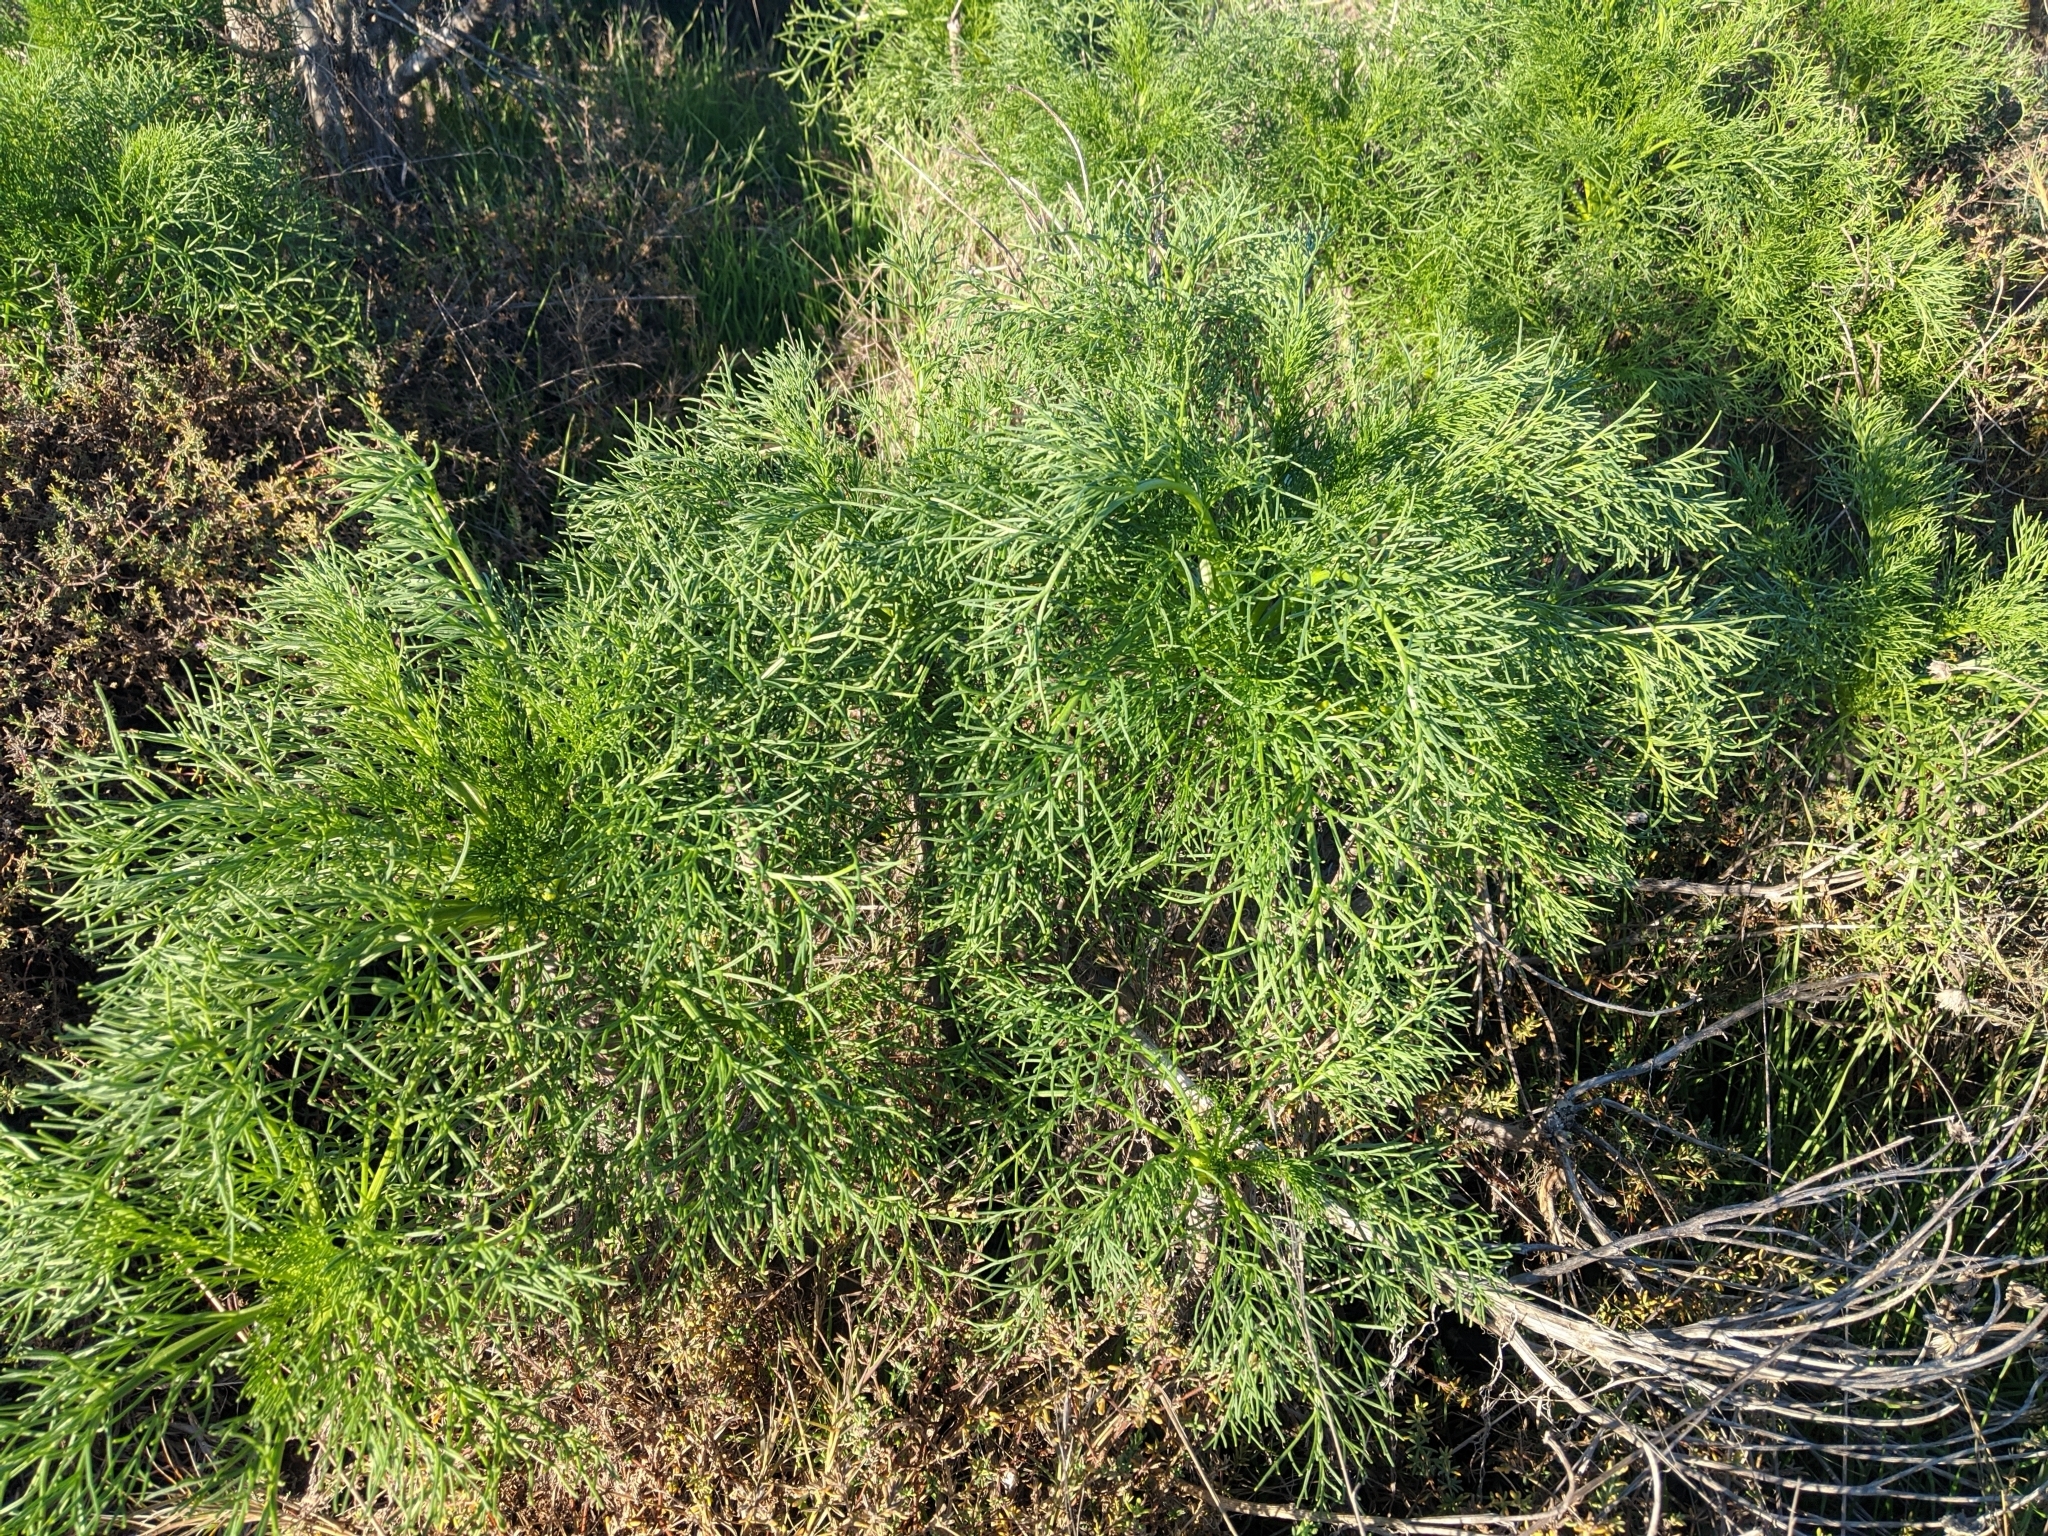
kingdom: Plantae
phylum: Tracheophyta
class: Magnoliopsida
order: Asterales
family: Asteraceae
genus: Coreopsis
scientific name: Coreopsis gigantea
